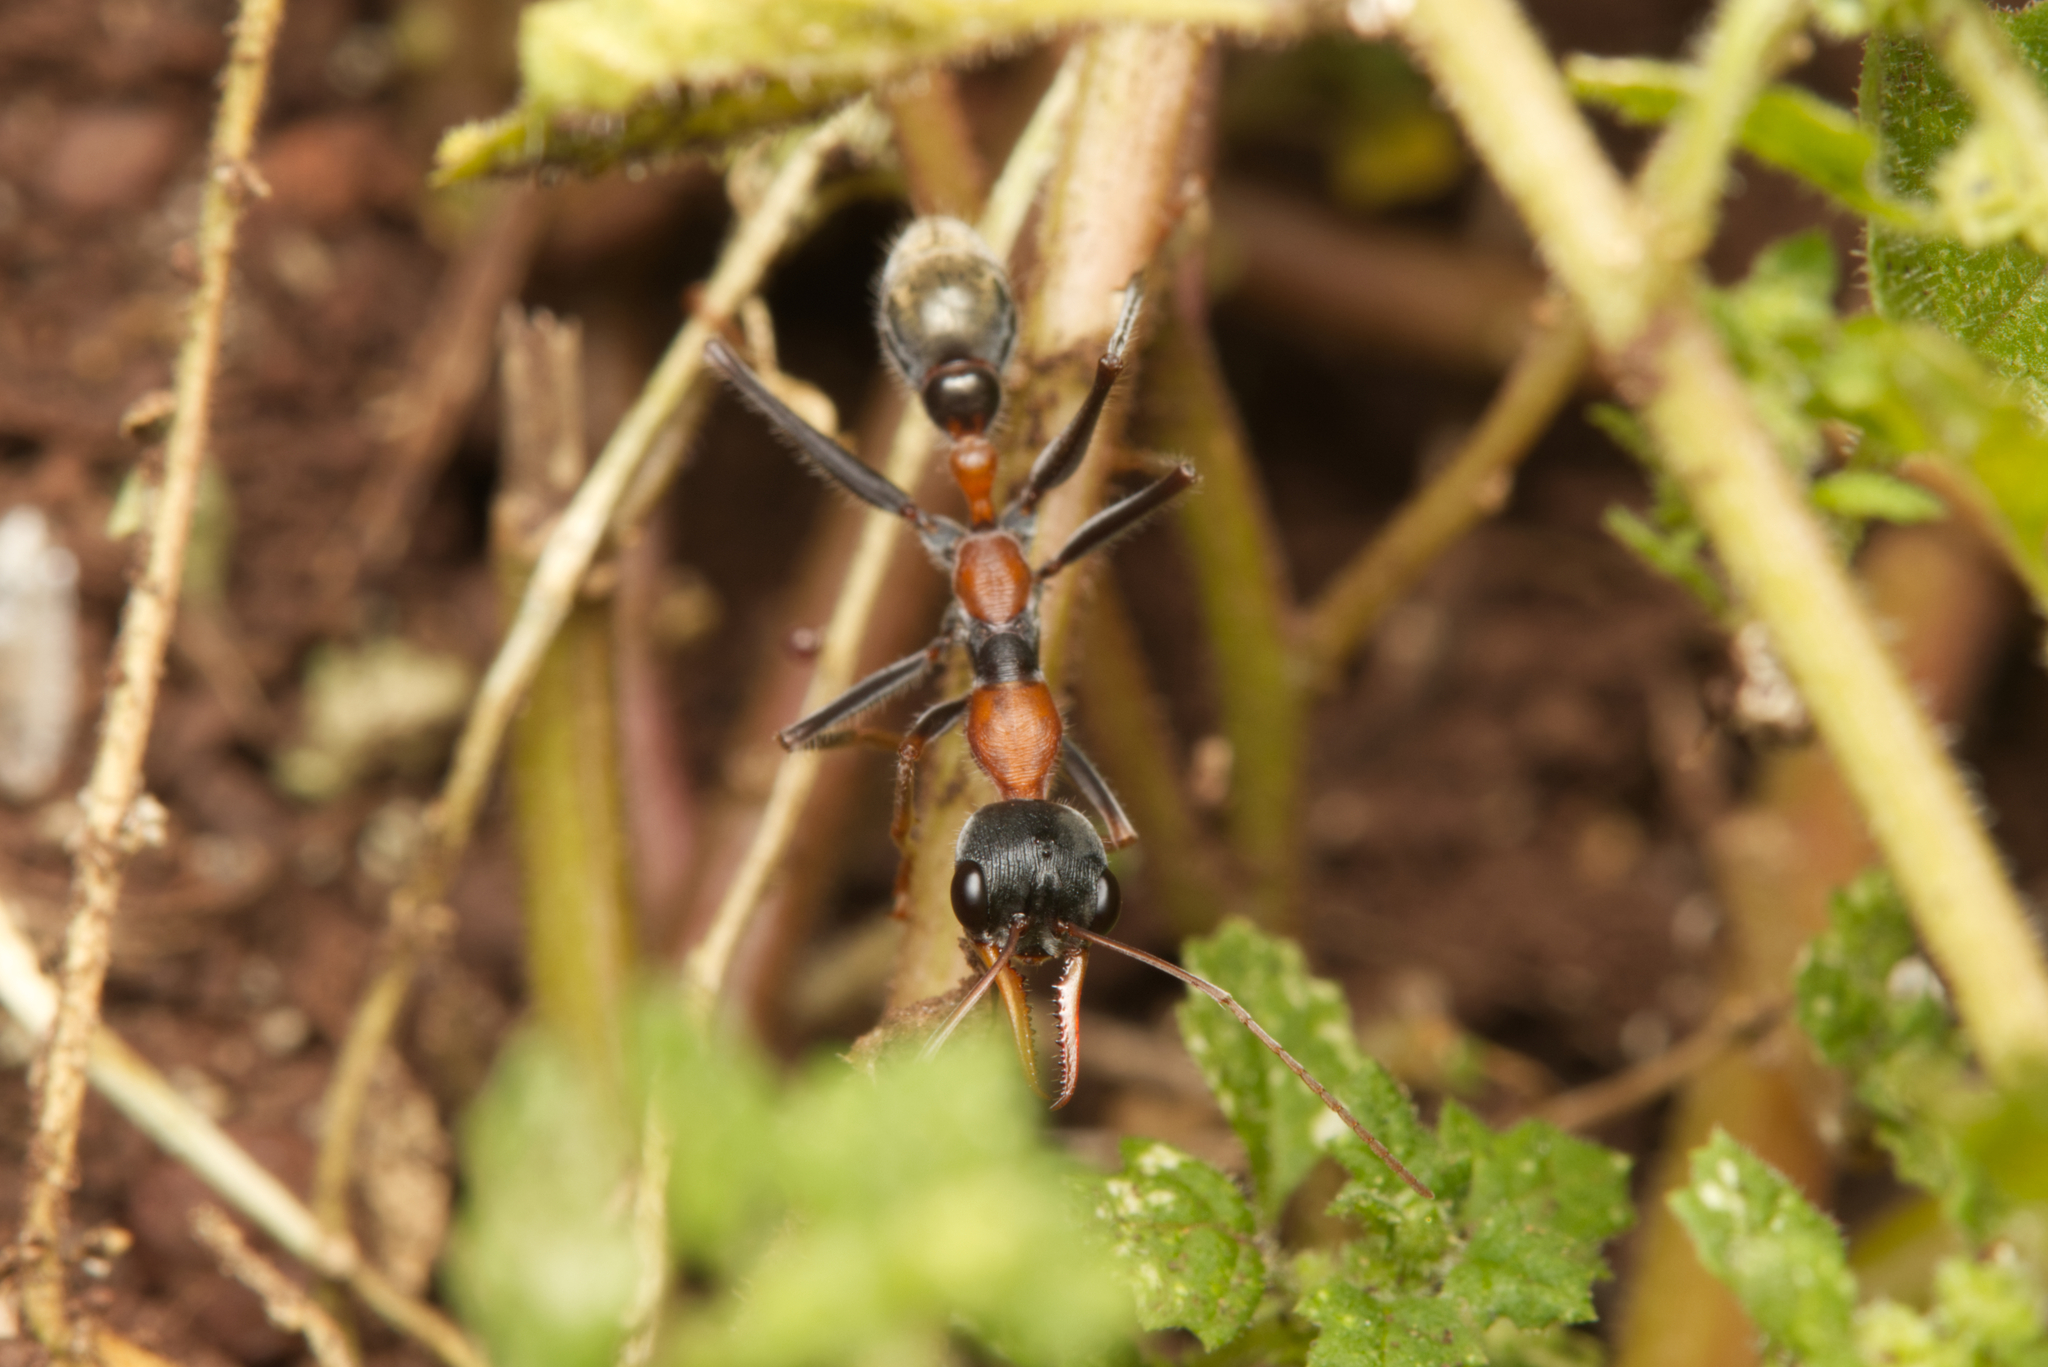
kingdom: Animalia
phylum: Arthropoda
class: Insecta
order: Hymenoptera
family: Formicidae
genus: Myrmecia
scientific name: Myrmecia nigrocincta
